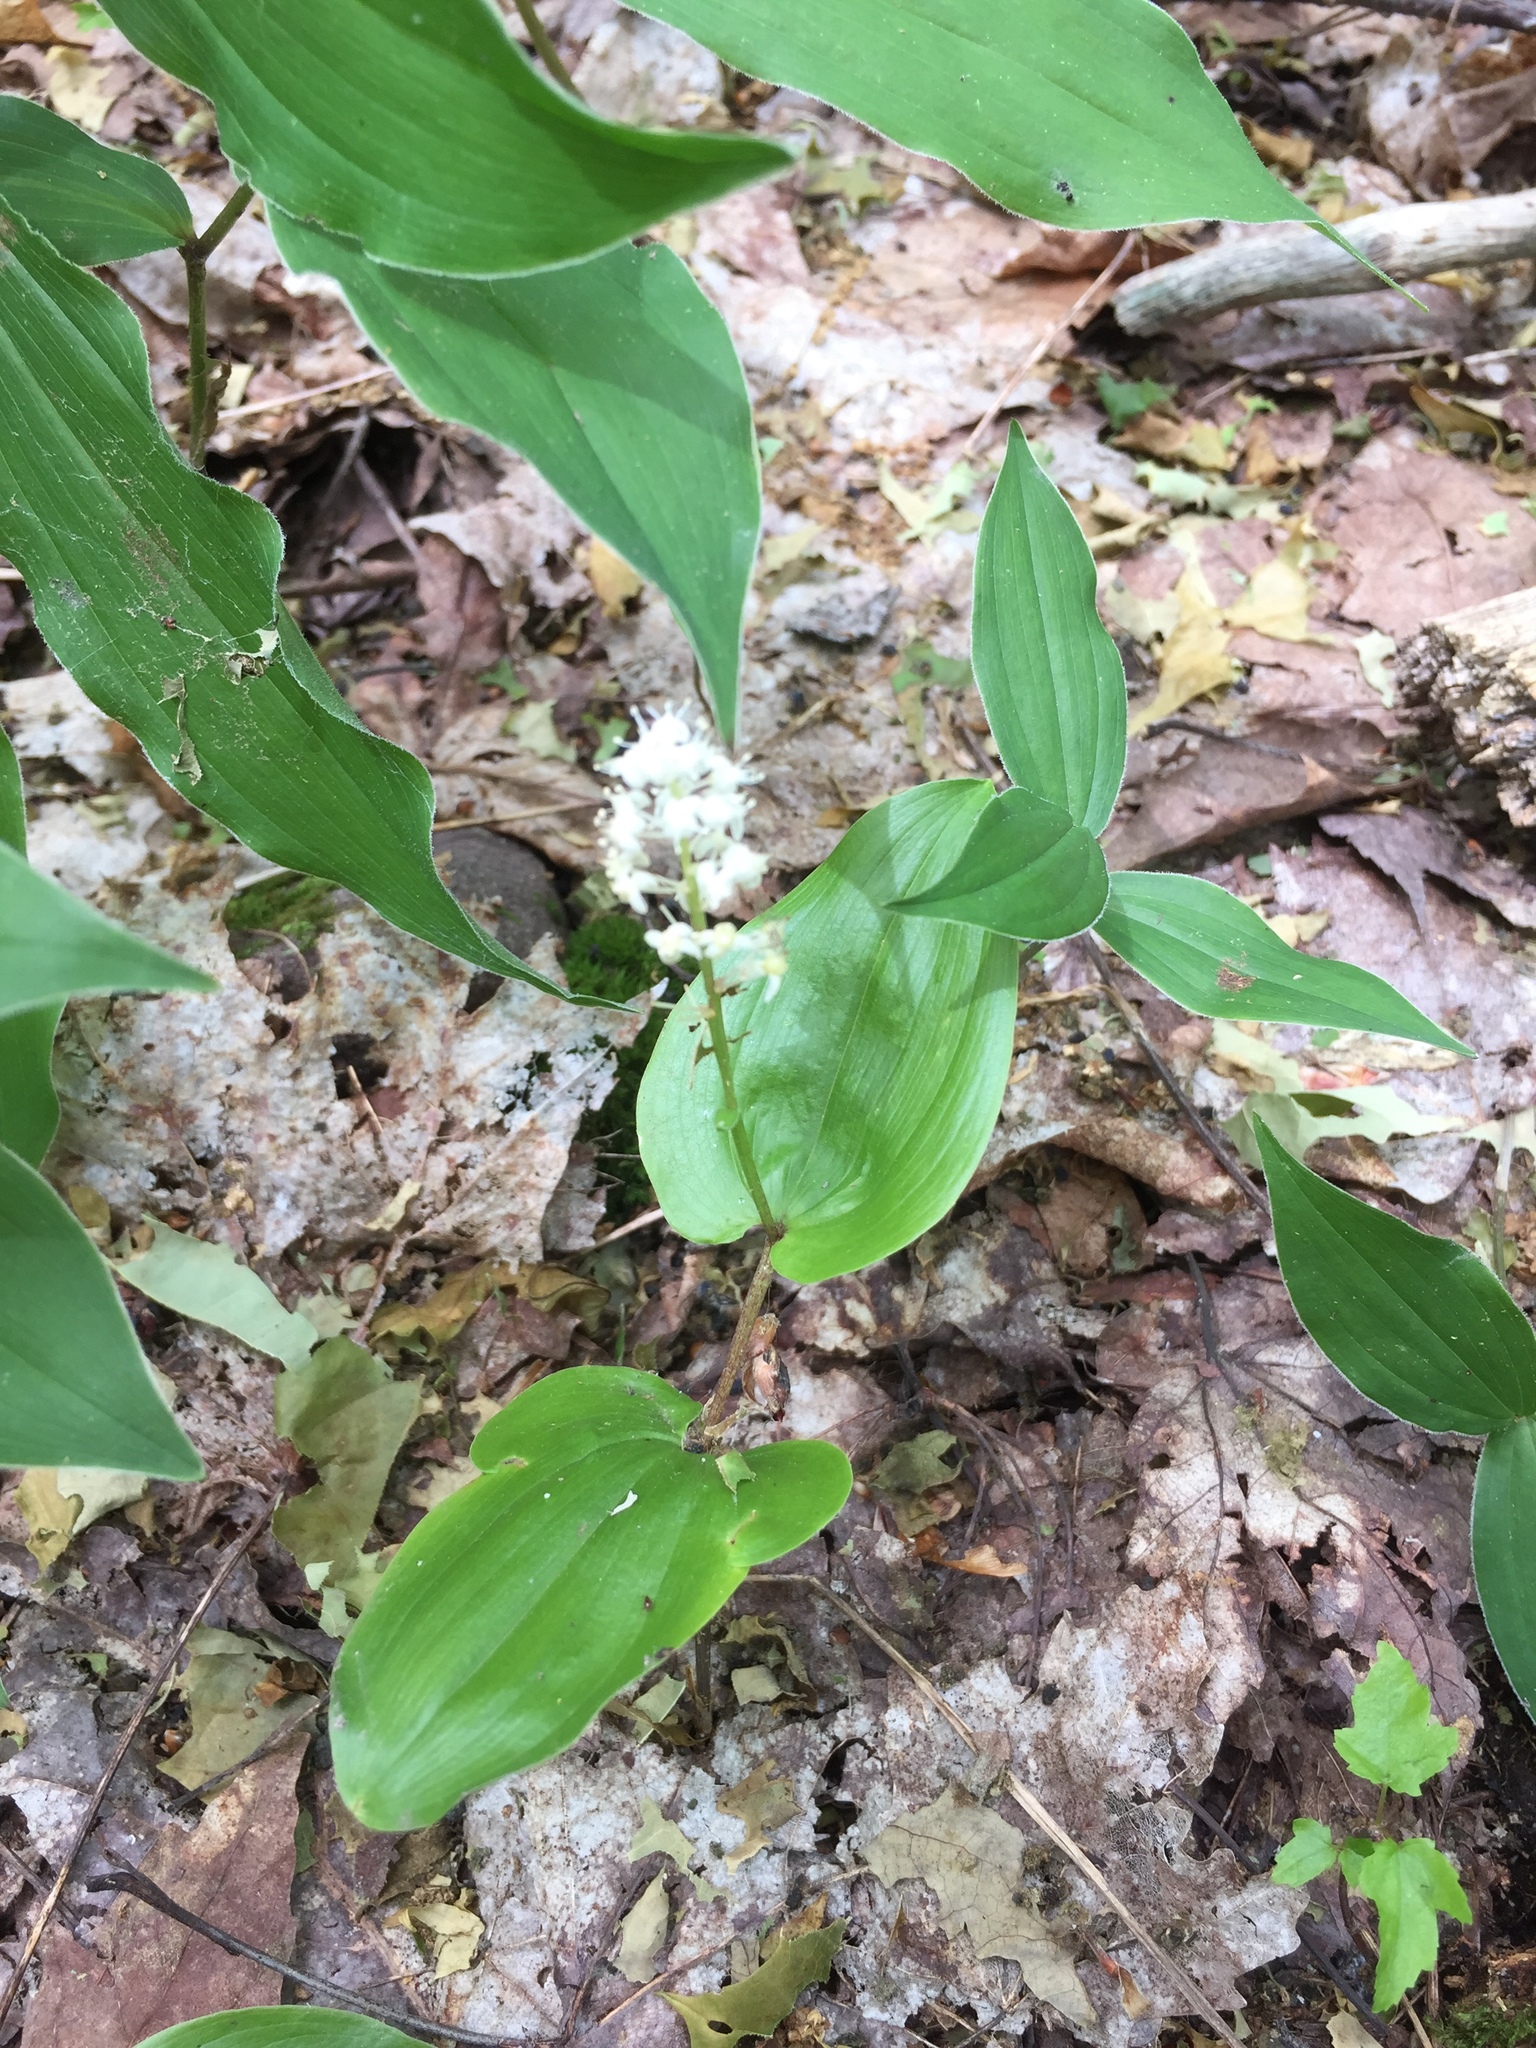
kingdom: Plantae
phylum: Tracheophyta
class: Liliopsida
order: Asparagales
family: Asparagaceae
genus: Maianthemum
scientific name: Maianthemum canadense
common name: False lily-of-the-valley
